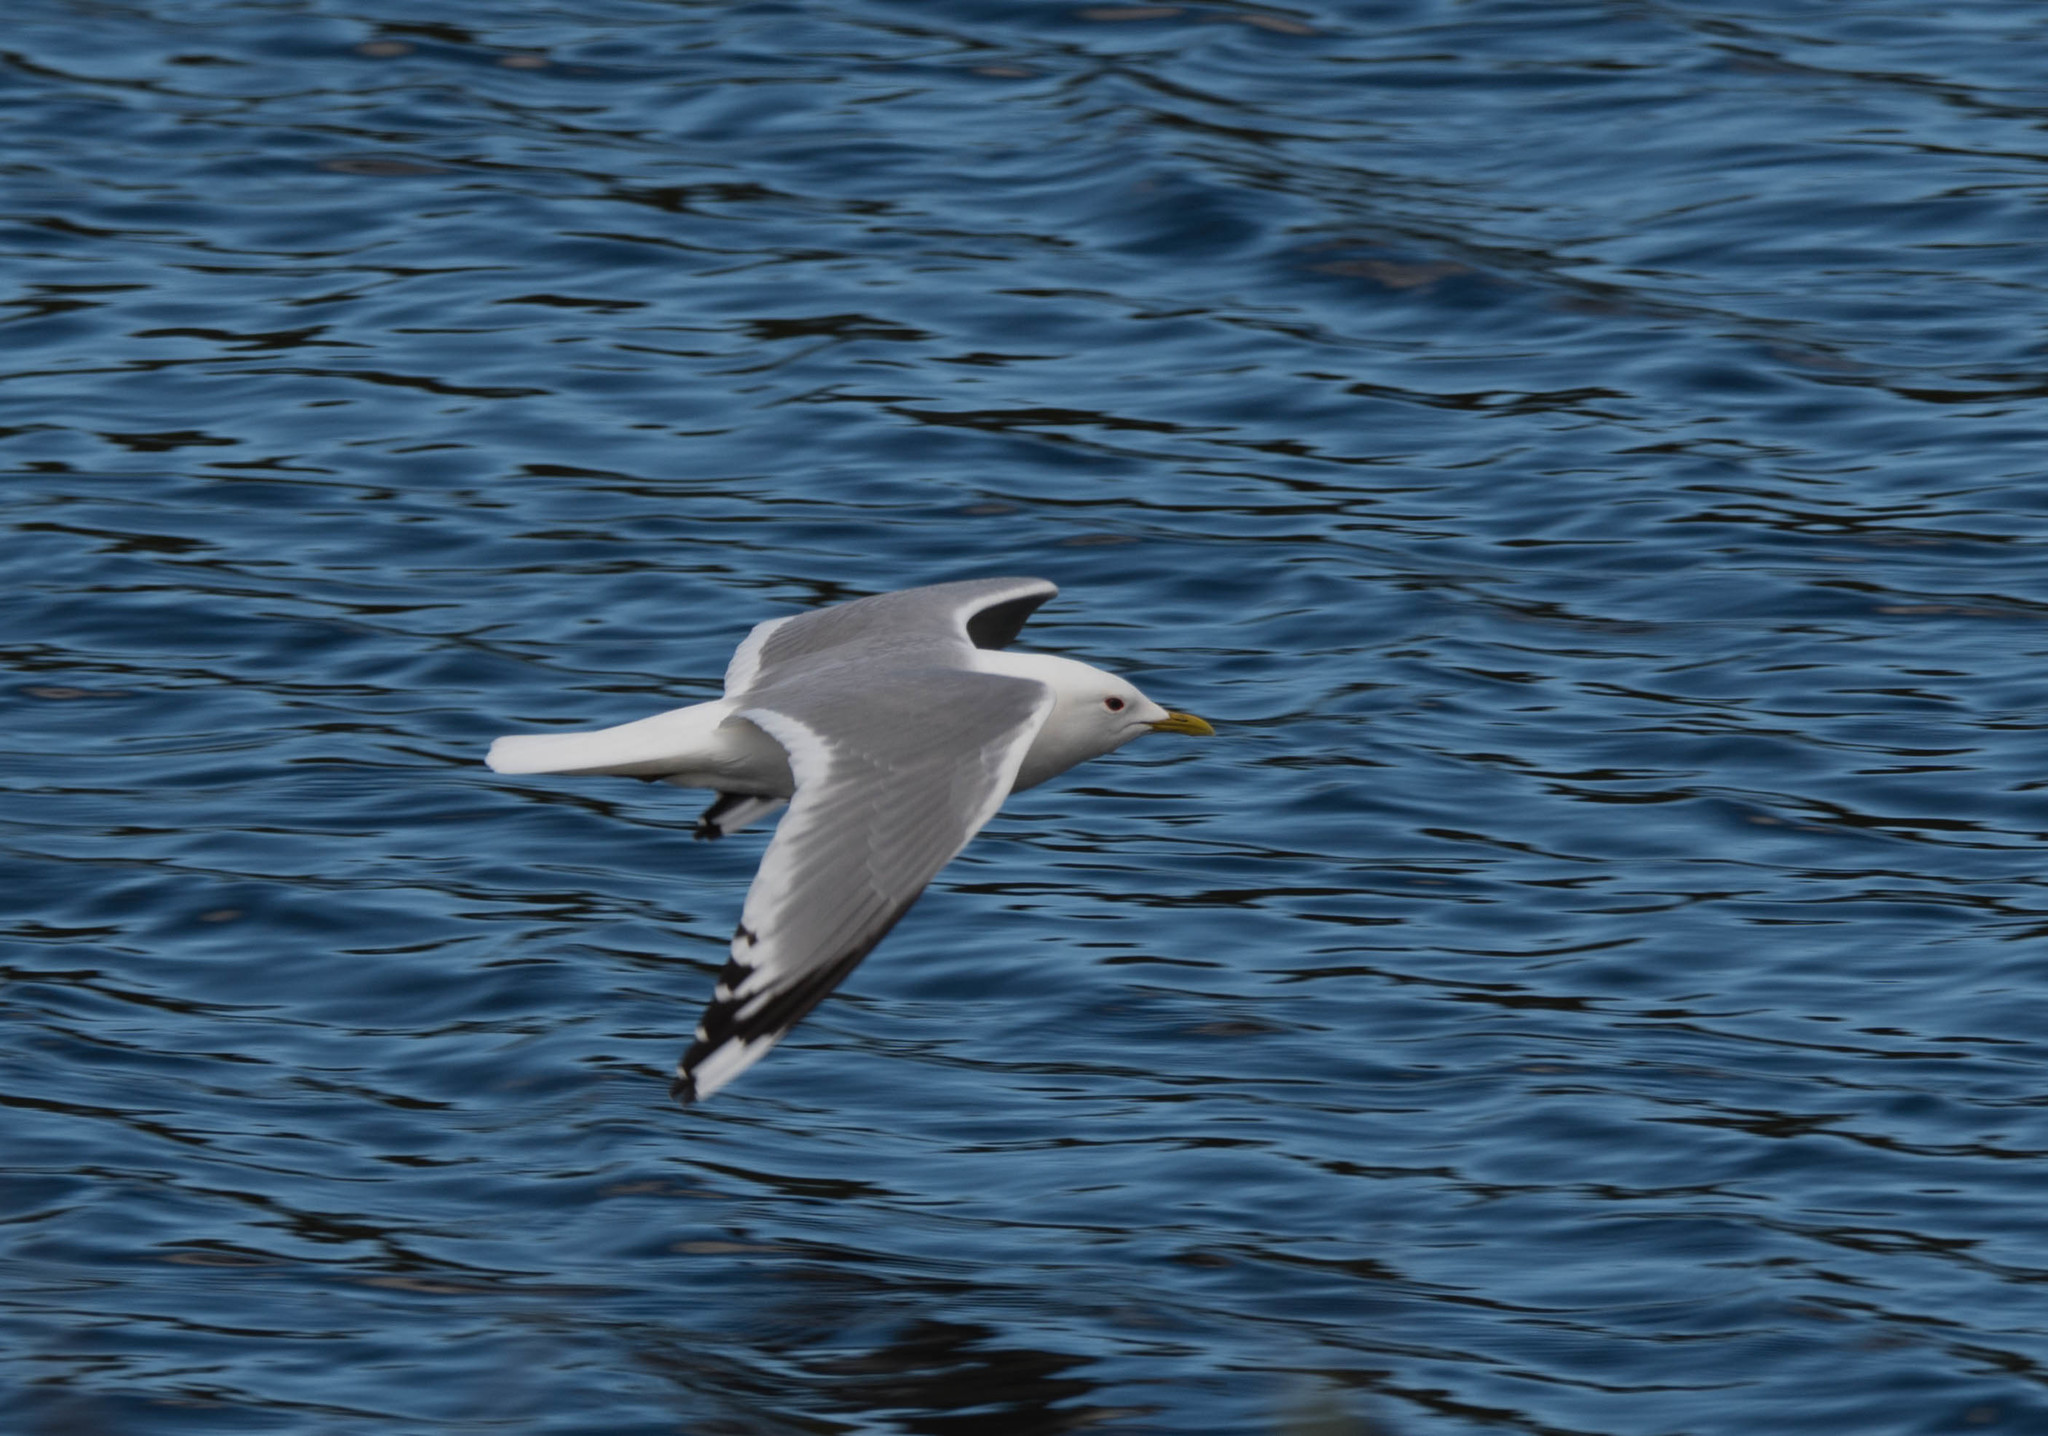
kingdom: Animalia
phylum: Chordata
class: Aves
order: Charadriiformes
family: Laridae
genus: Larus
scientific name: Larus brachyrhynchus
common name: Short-billed gull
